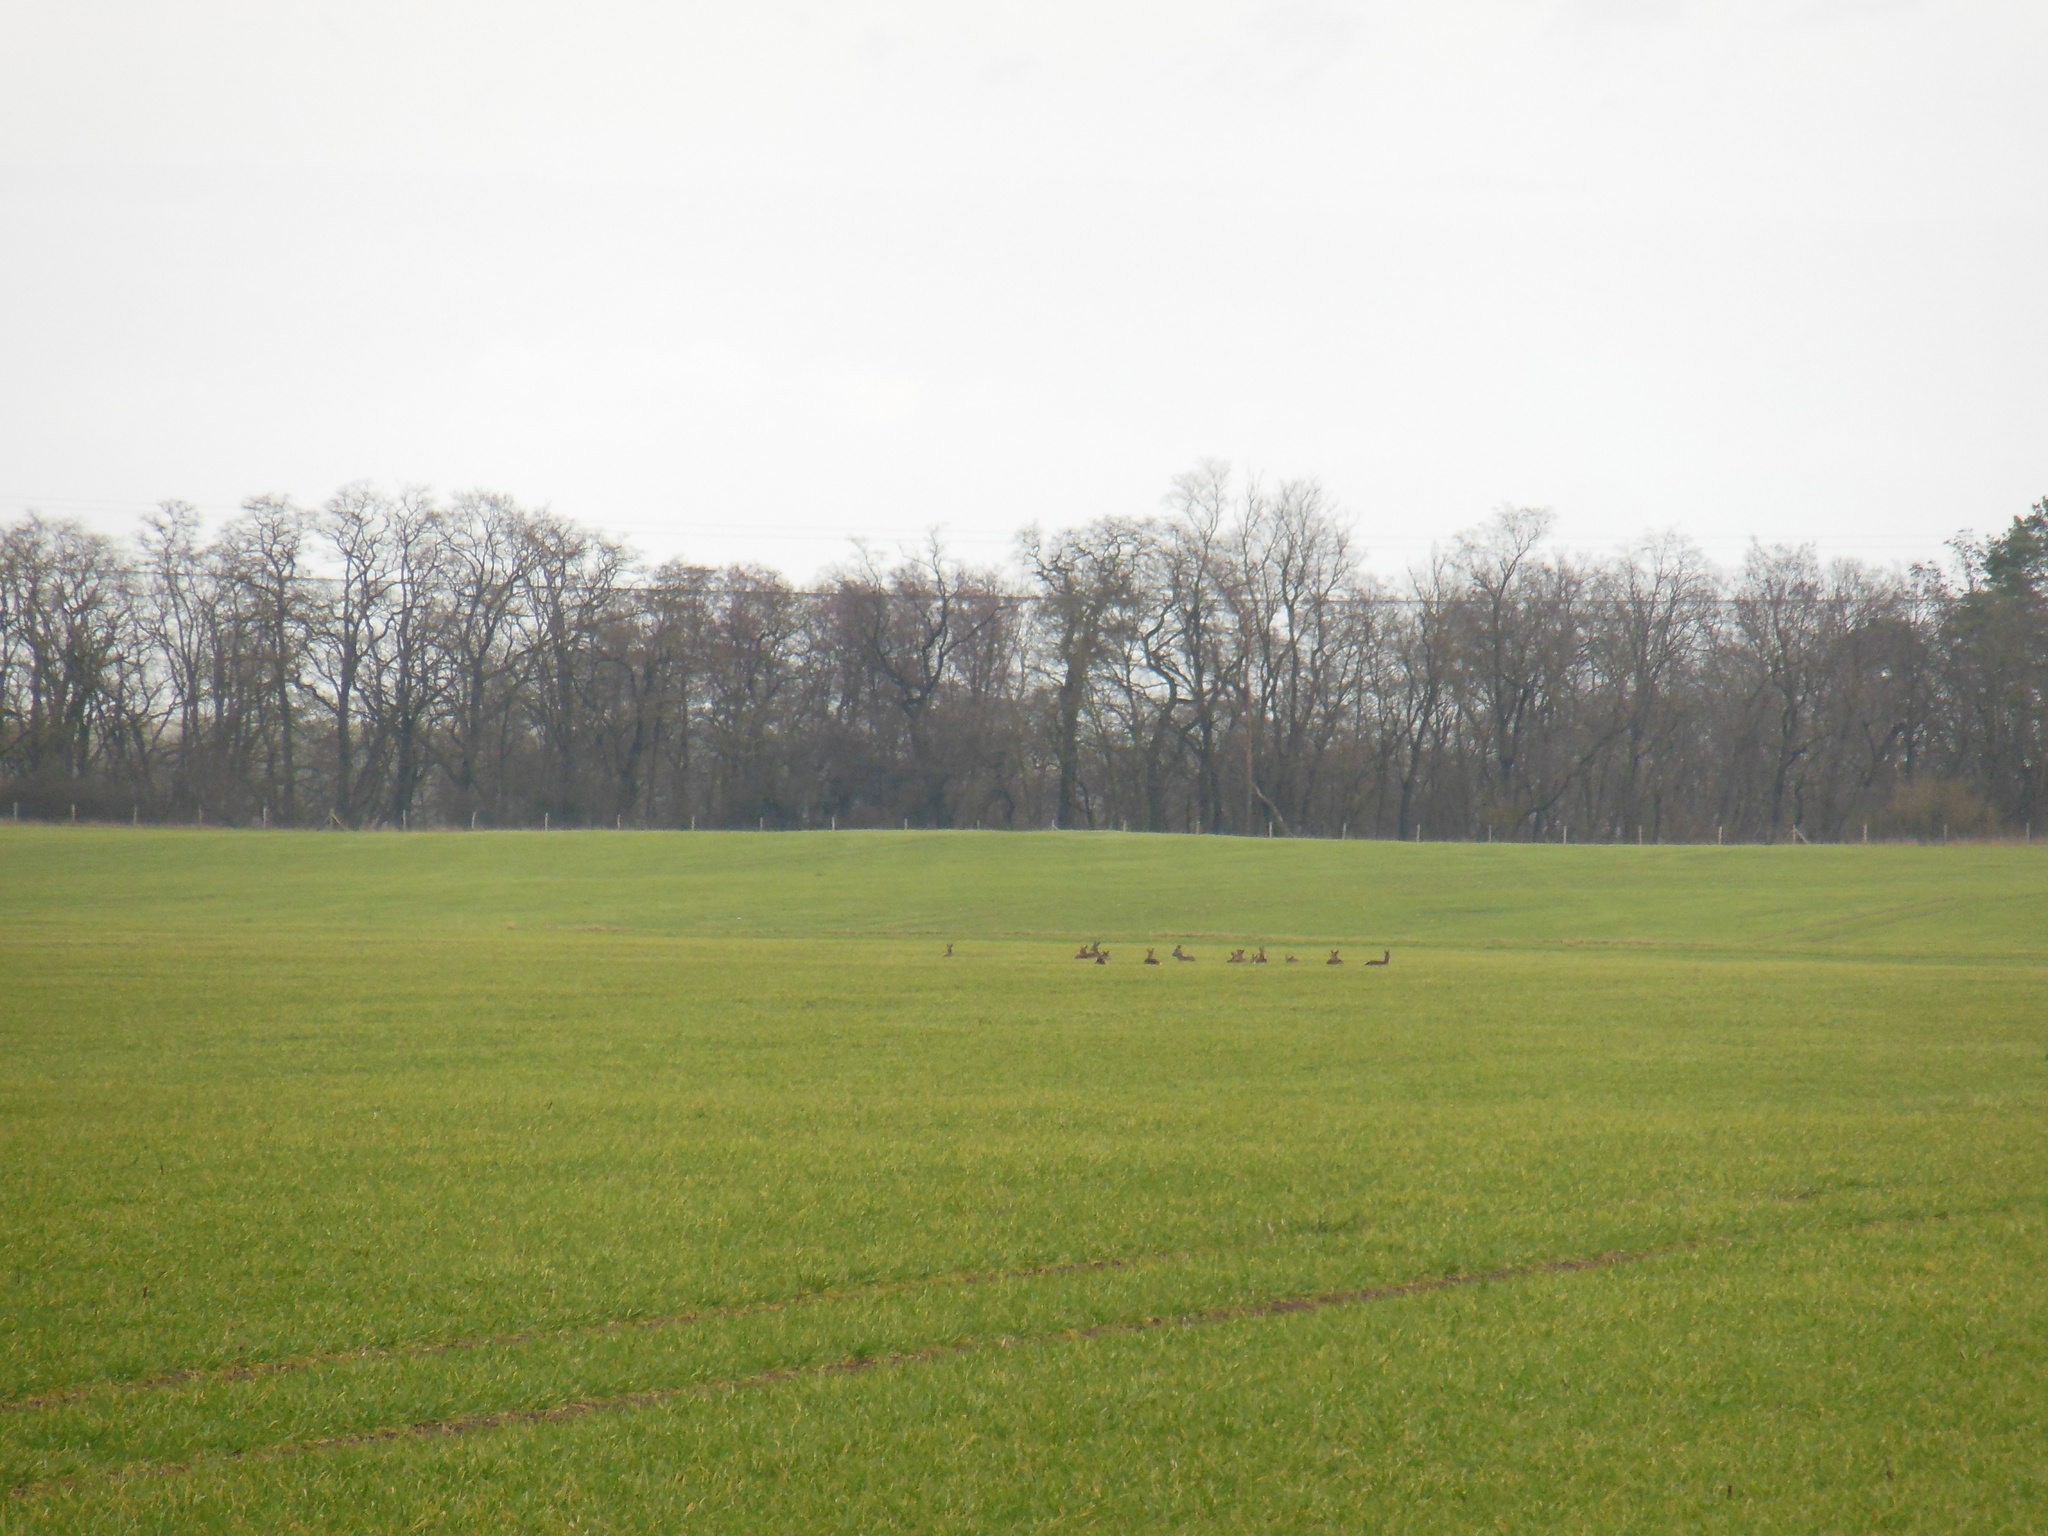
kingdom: Animalia
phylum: Chordata
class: Mammalia
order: Artiodactyla
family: Cervidae
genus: Capreolus
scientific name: Capreolus capreolus
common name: Western roe deer
